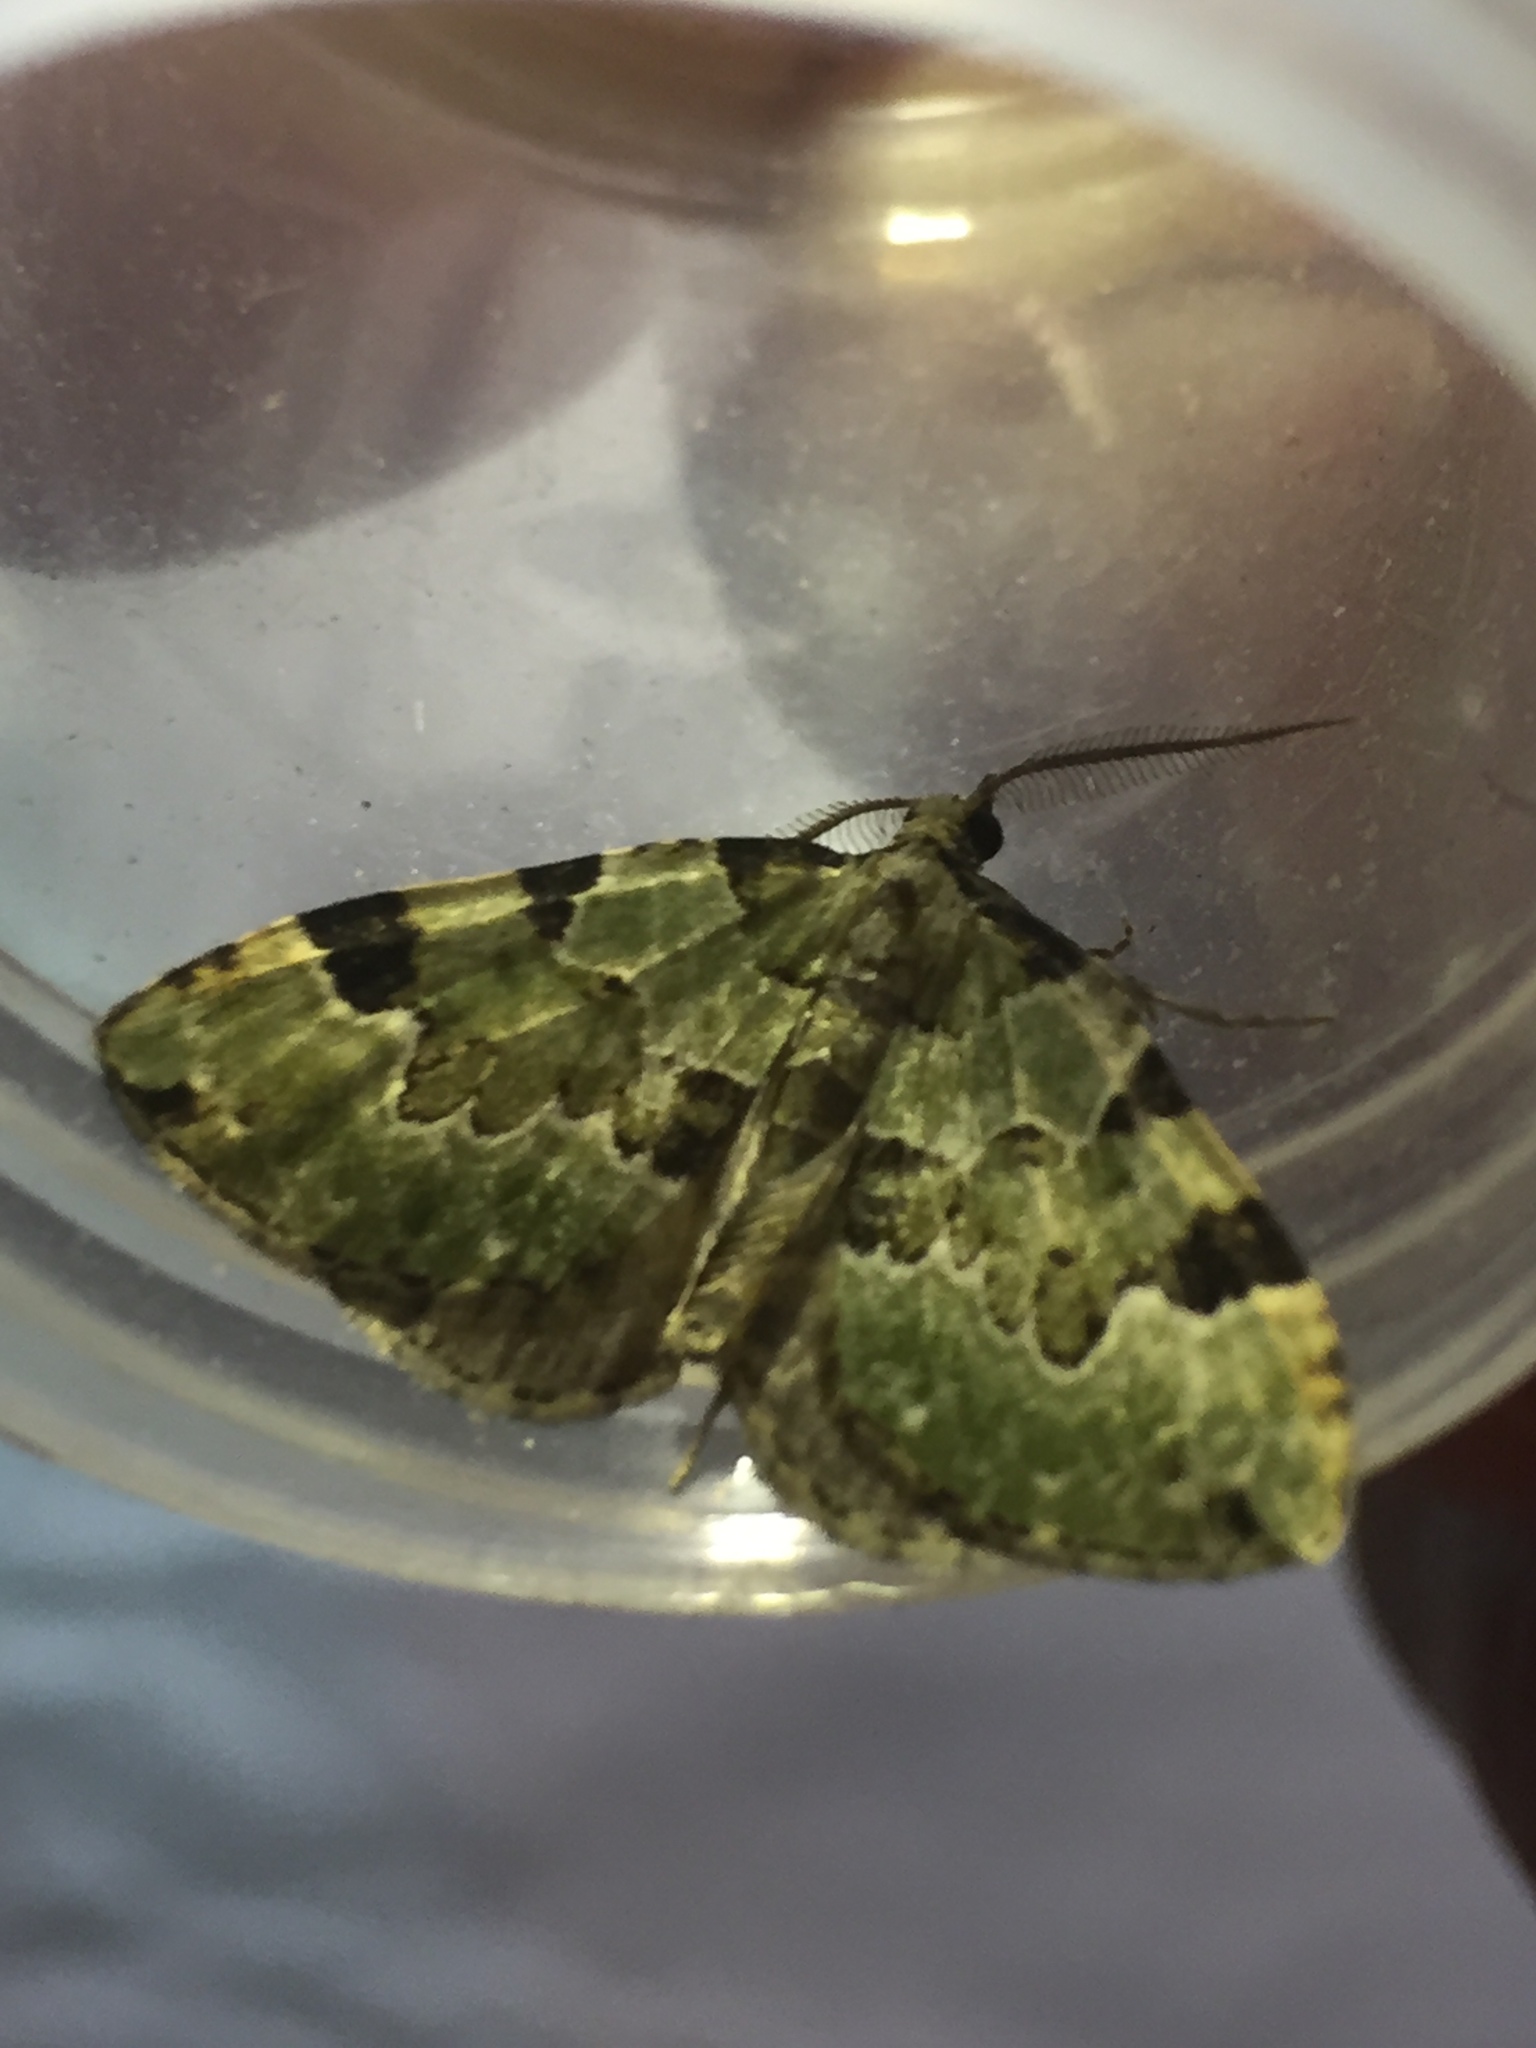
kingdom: Animalia
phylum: Arthropoda
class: Insecta
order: Lepidoptera
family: Geometridae
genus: Colostygia
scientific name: Colostygia pectinataria
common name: Green carpet
